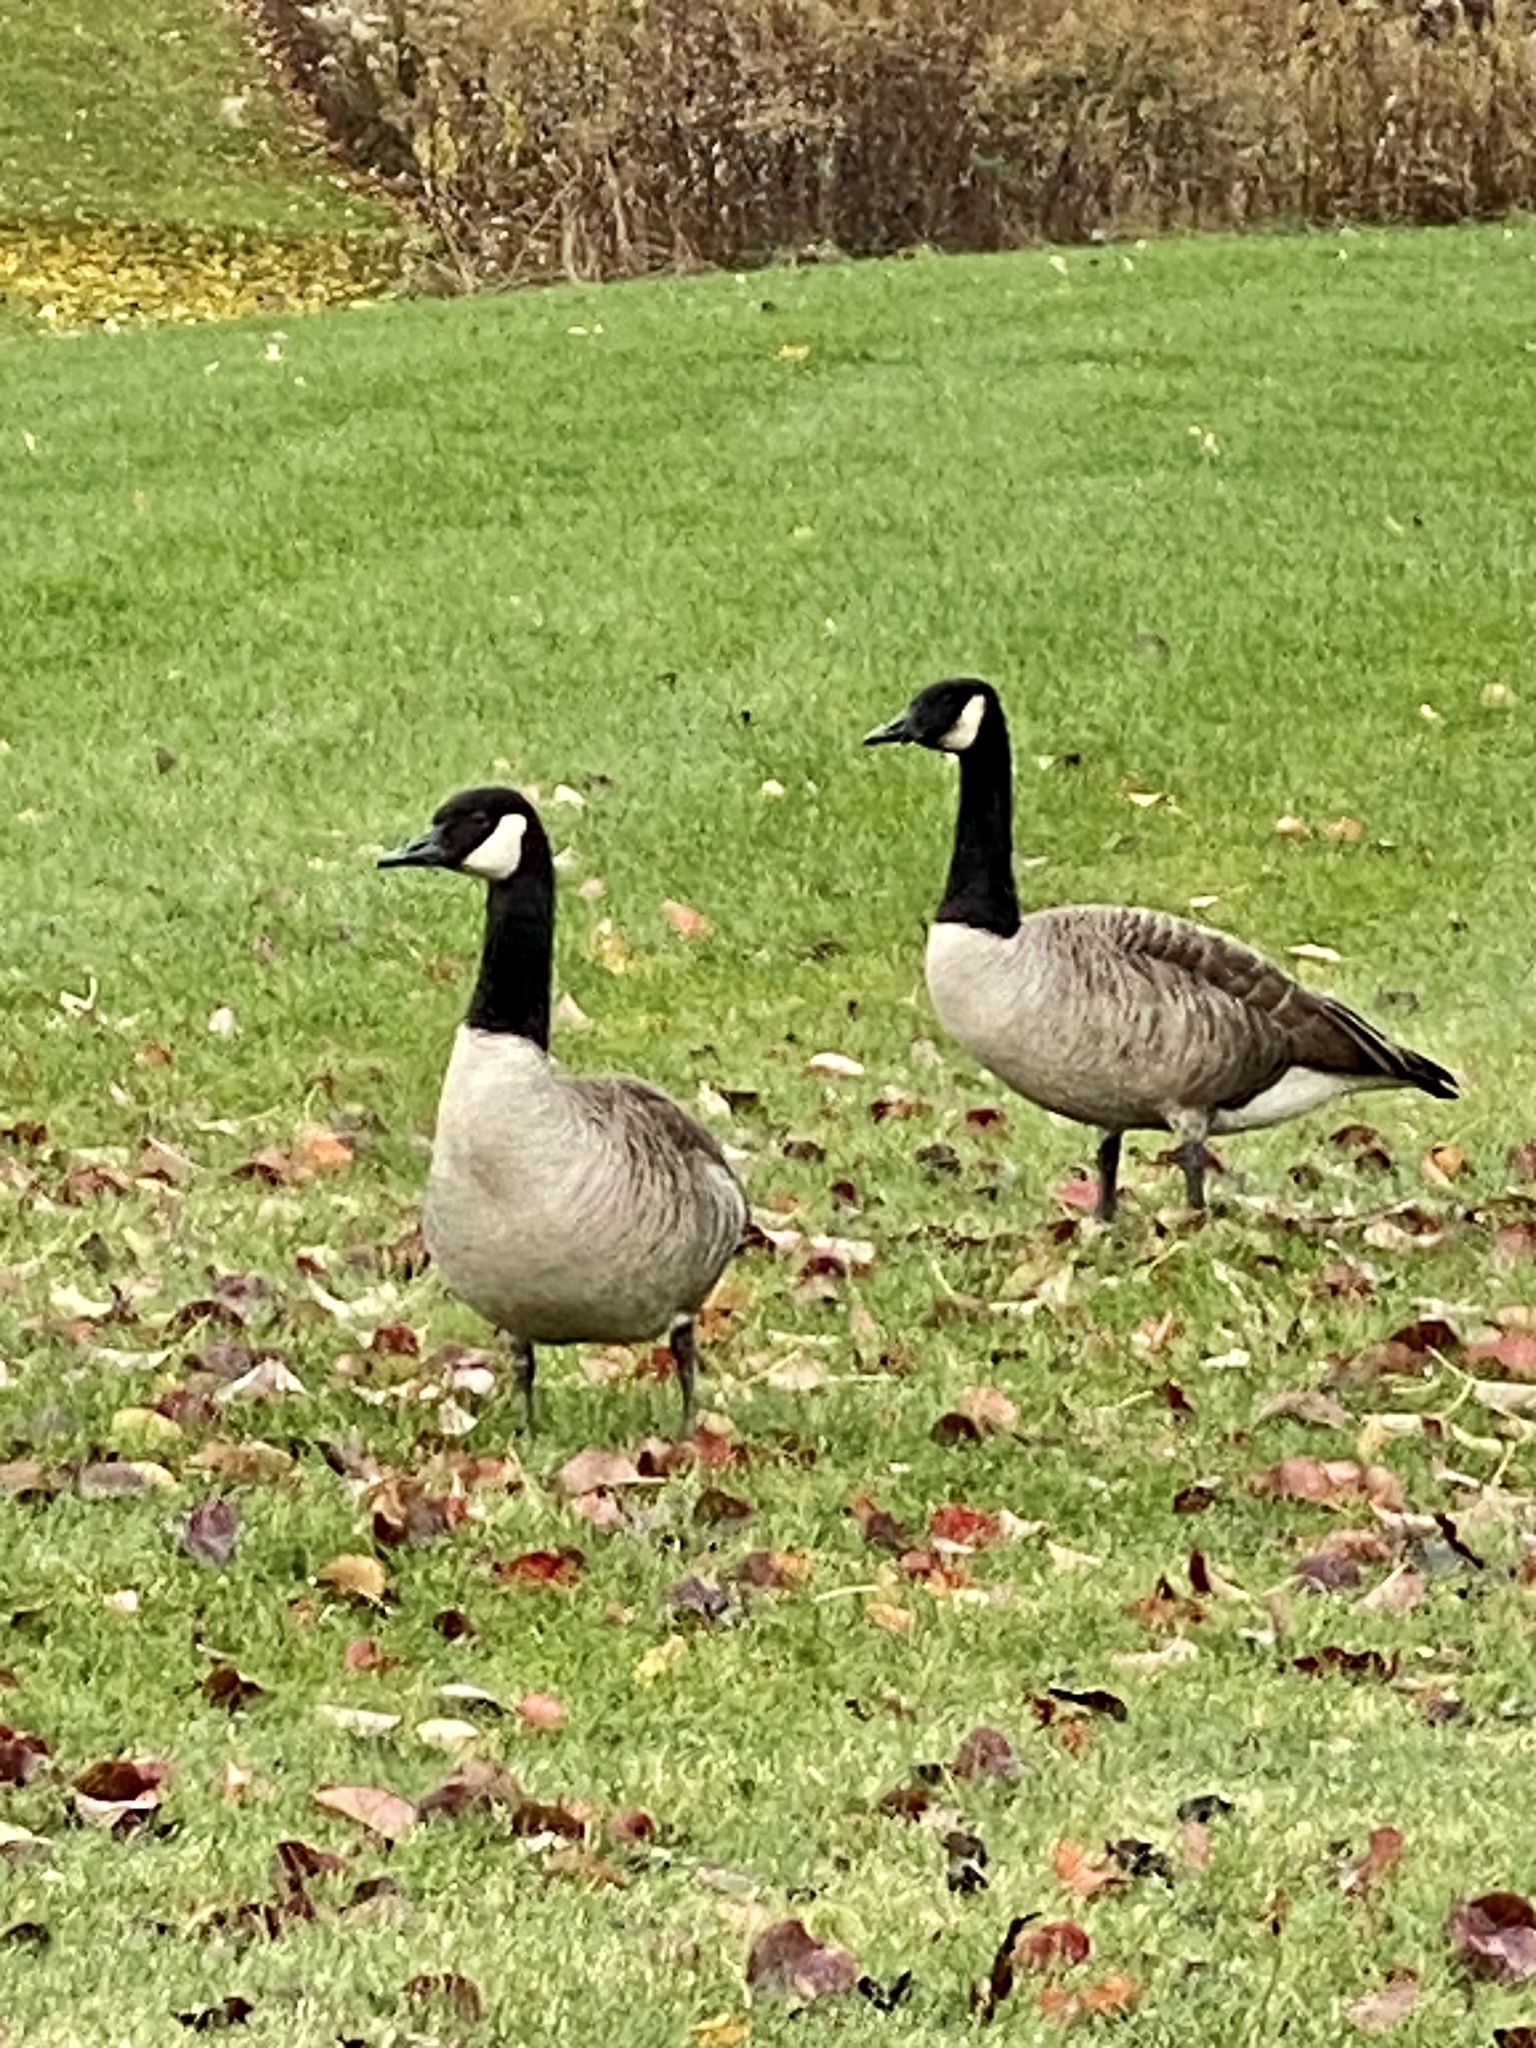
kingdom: Animalia
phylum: Chordata
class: Aves
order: Anseriformes
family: Anatidae
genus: Branta
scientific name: Branta canadensis
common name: Canada goose
